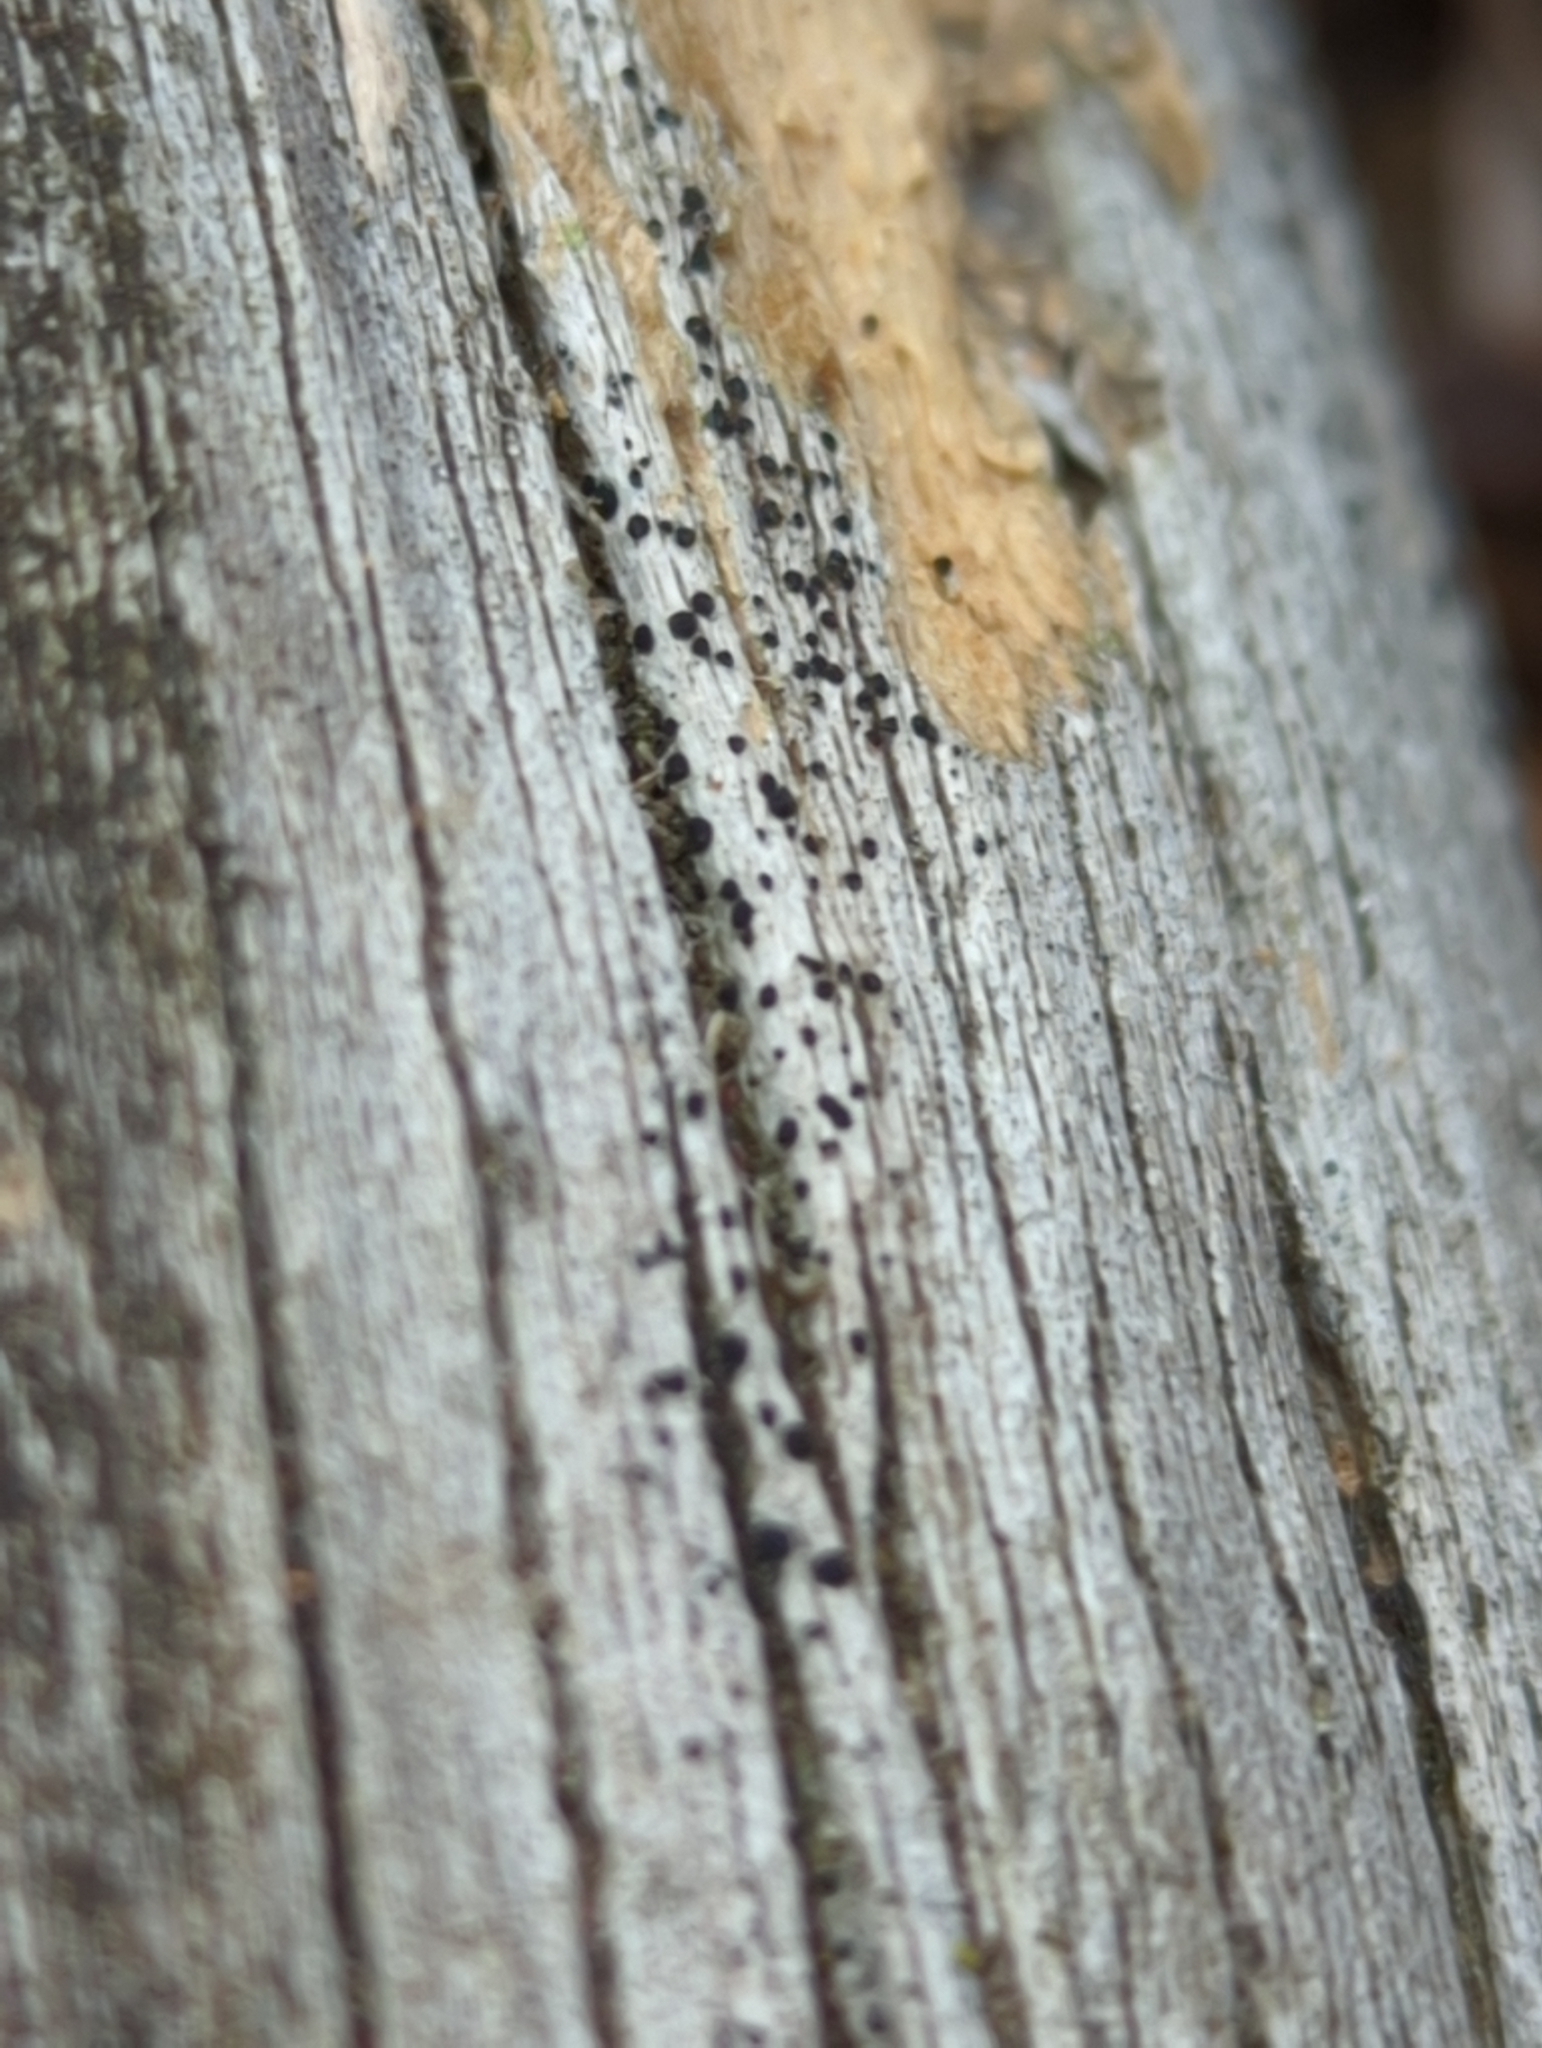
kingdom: Fungi
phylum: Ascomycota
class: Lecanoromycetes
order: Caliciales
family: Caliciaceae
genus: Amandinea
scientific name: Amandinea punctata
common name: Tiny button lichen
